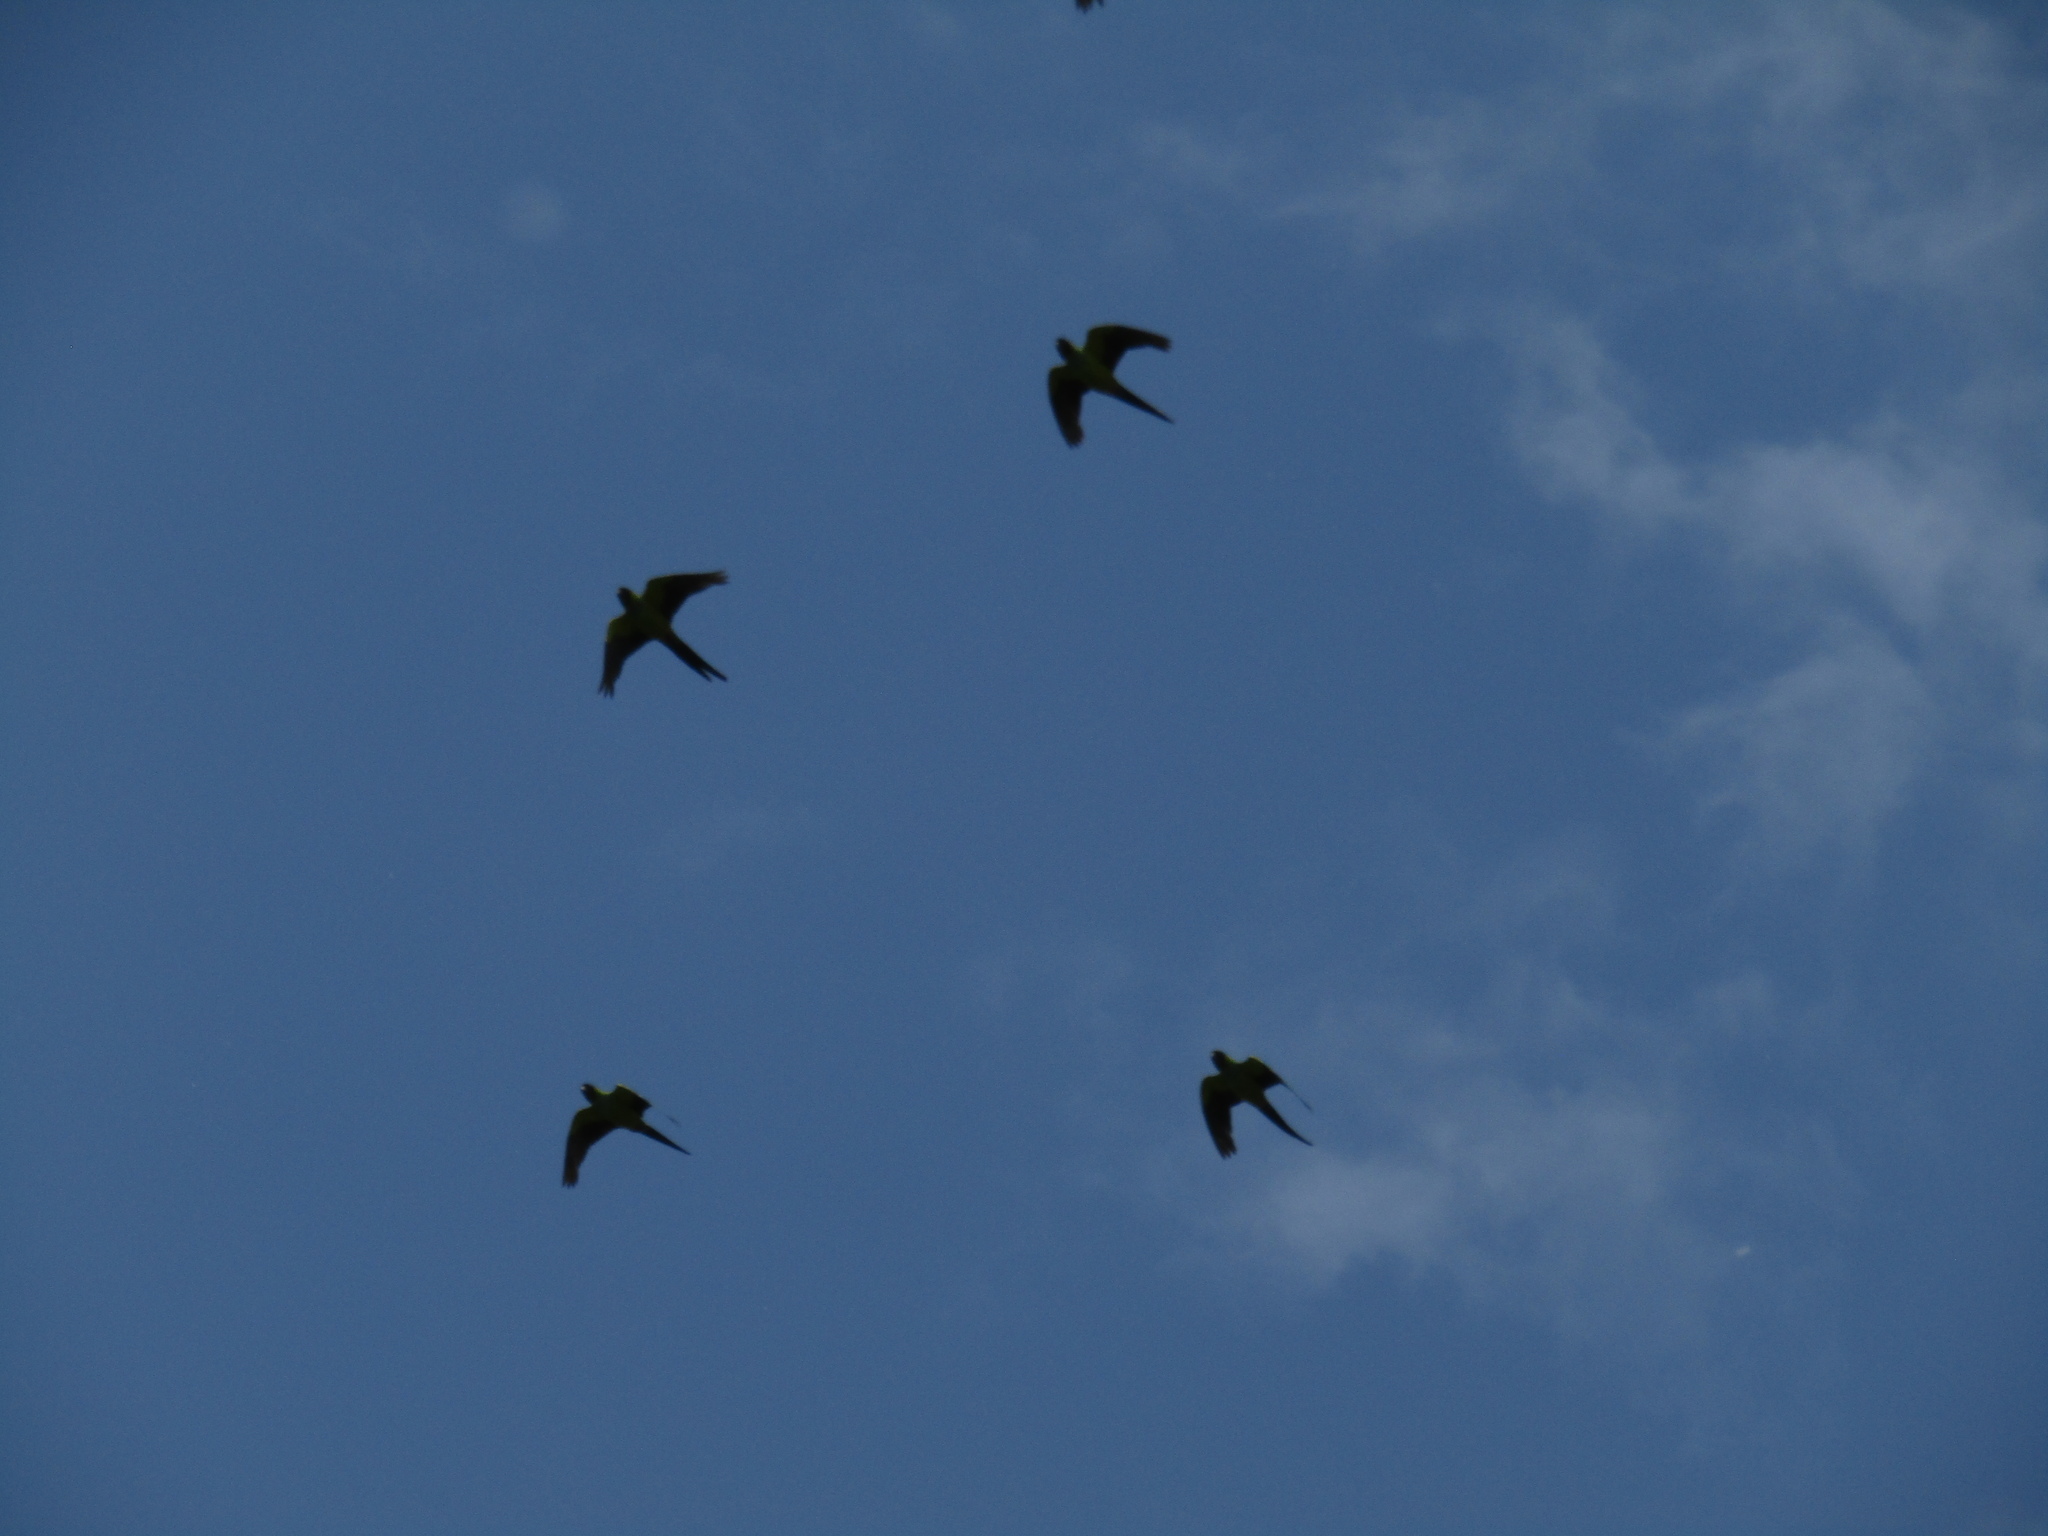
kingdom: Animalia
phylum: Chordata
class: Aves
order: Psittaciformes
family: Psittacidae
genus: Nandayus
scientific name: Nandayus nenday
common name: Nanday parakeet
